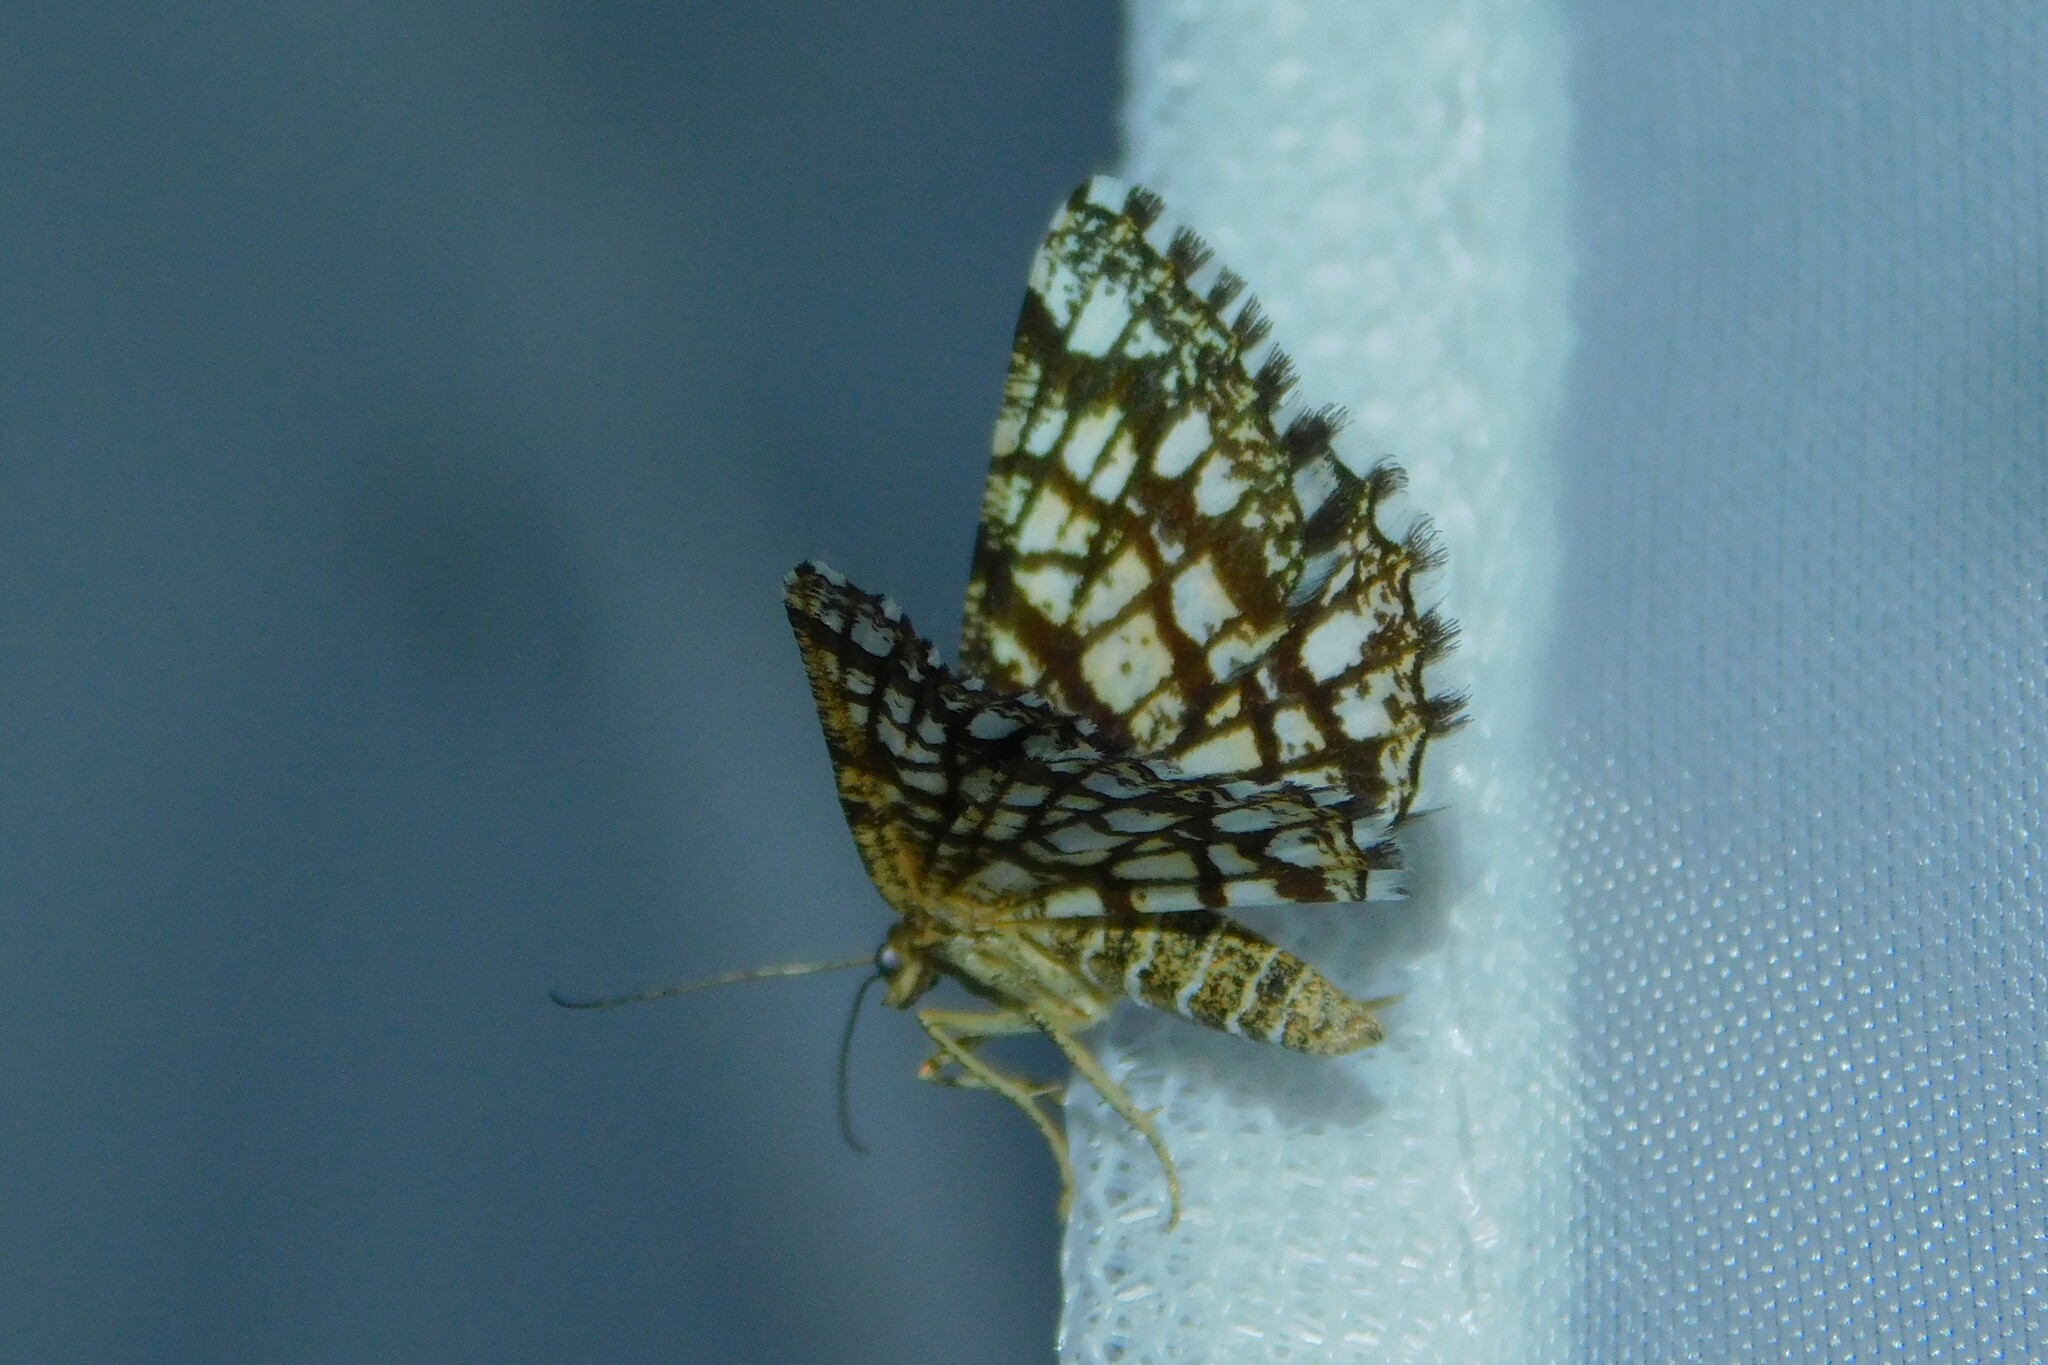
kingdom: Animalia
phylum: Arthropoda
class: Insecta
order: Lepidoptera
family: Geometridae
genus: Chiasmia
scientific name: Chiasmia clathrata
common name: Latticed heath
